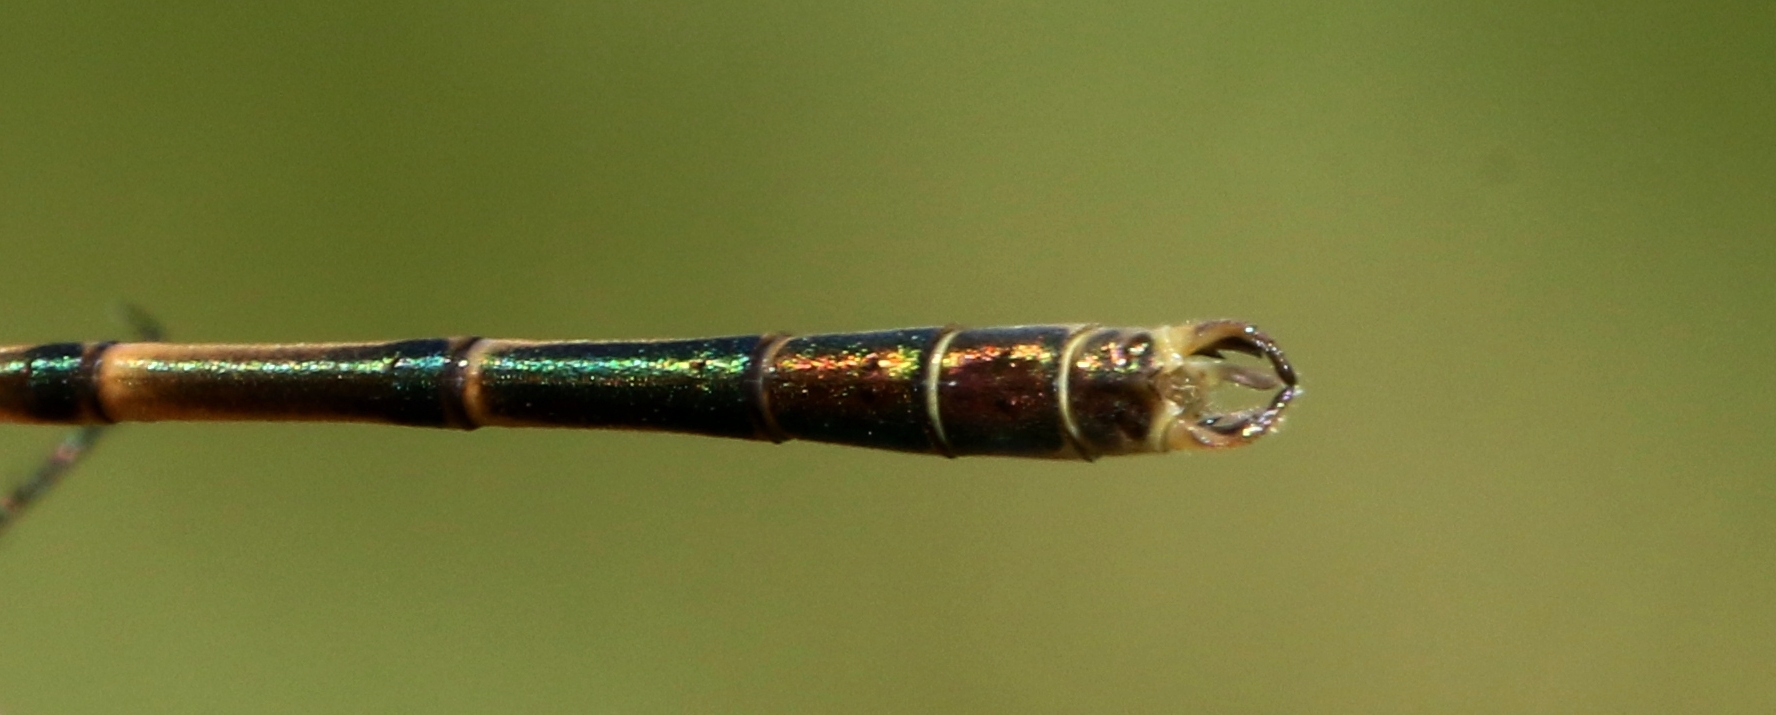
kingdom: Animalia
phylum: Arthropoda
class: Insecta
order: Odonata
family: Lestidae
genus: Lestes
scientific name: Lestes disjunctus
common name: Northern spreadwing
